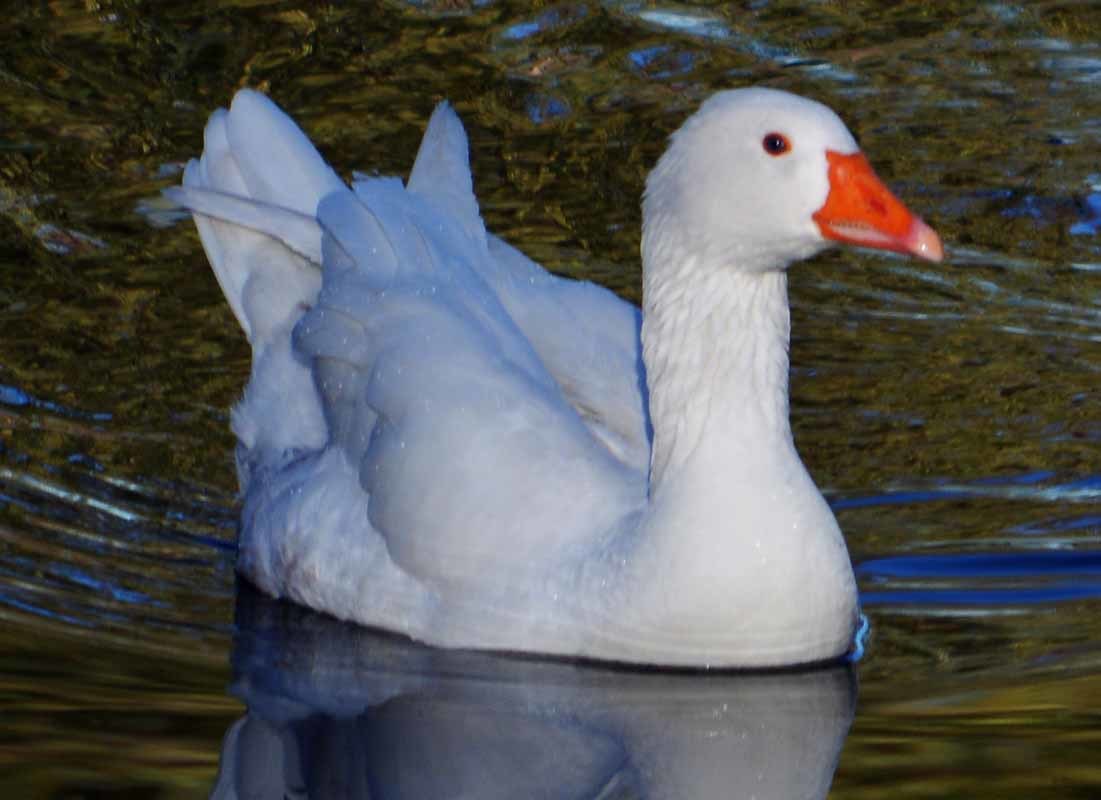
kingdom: Animalia
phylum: Chordata
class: Aves
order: Anseriformes
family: Anatidae
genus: Anser
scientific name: Anser anser
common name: Greylag goose
